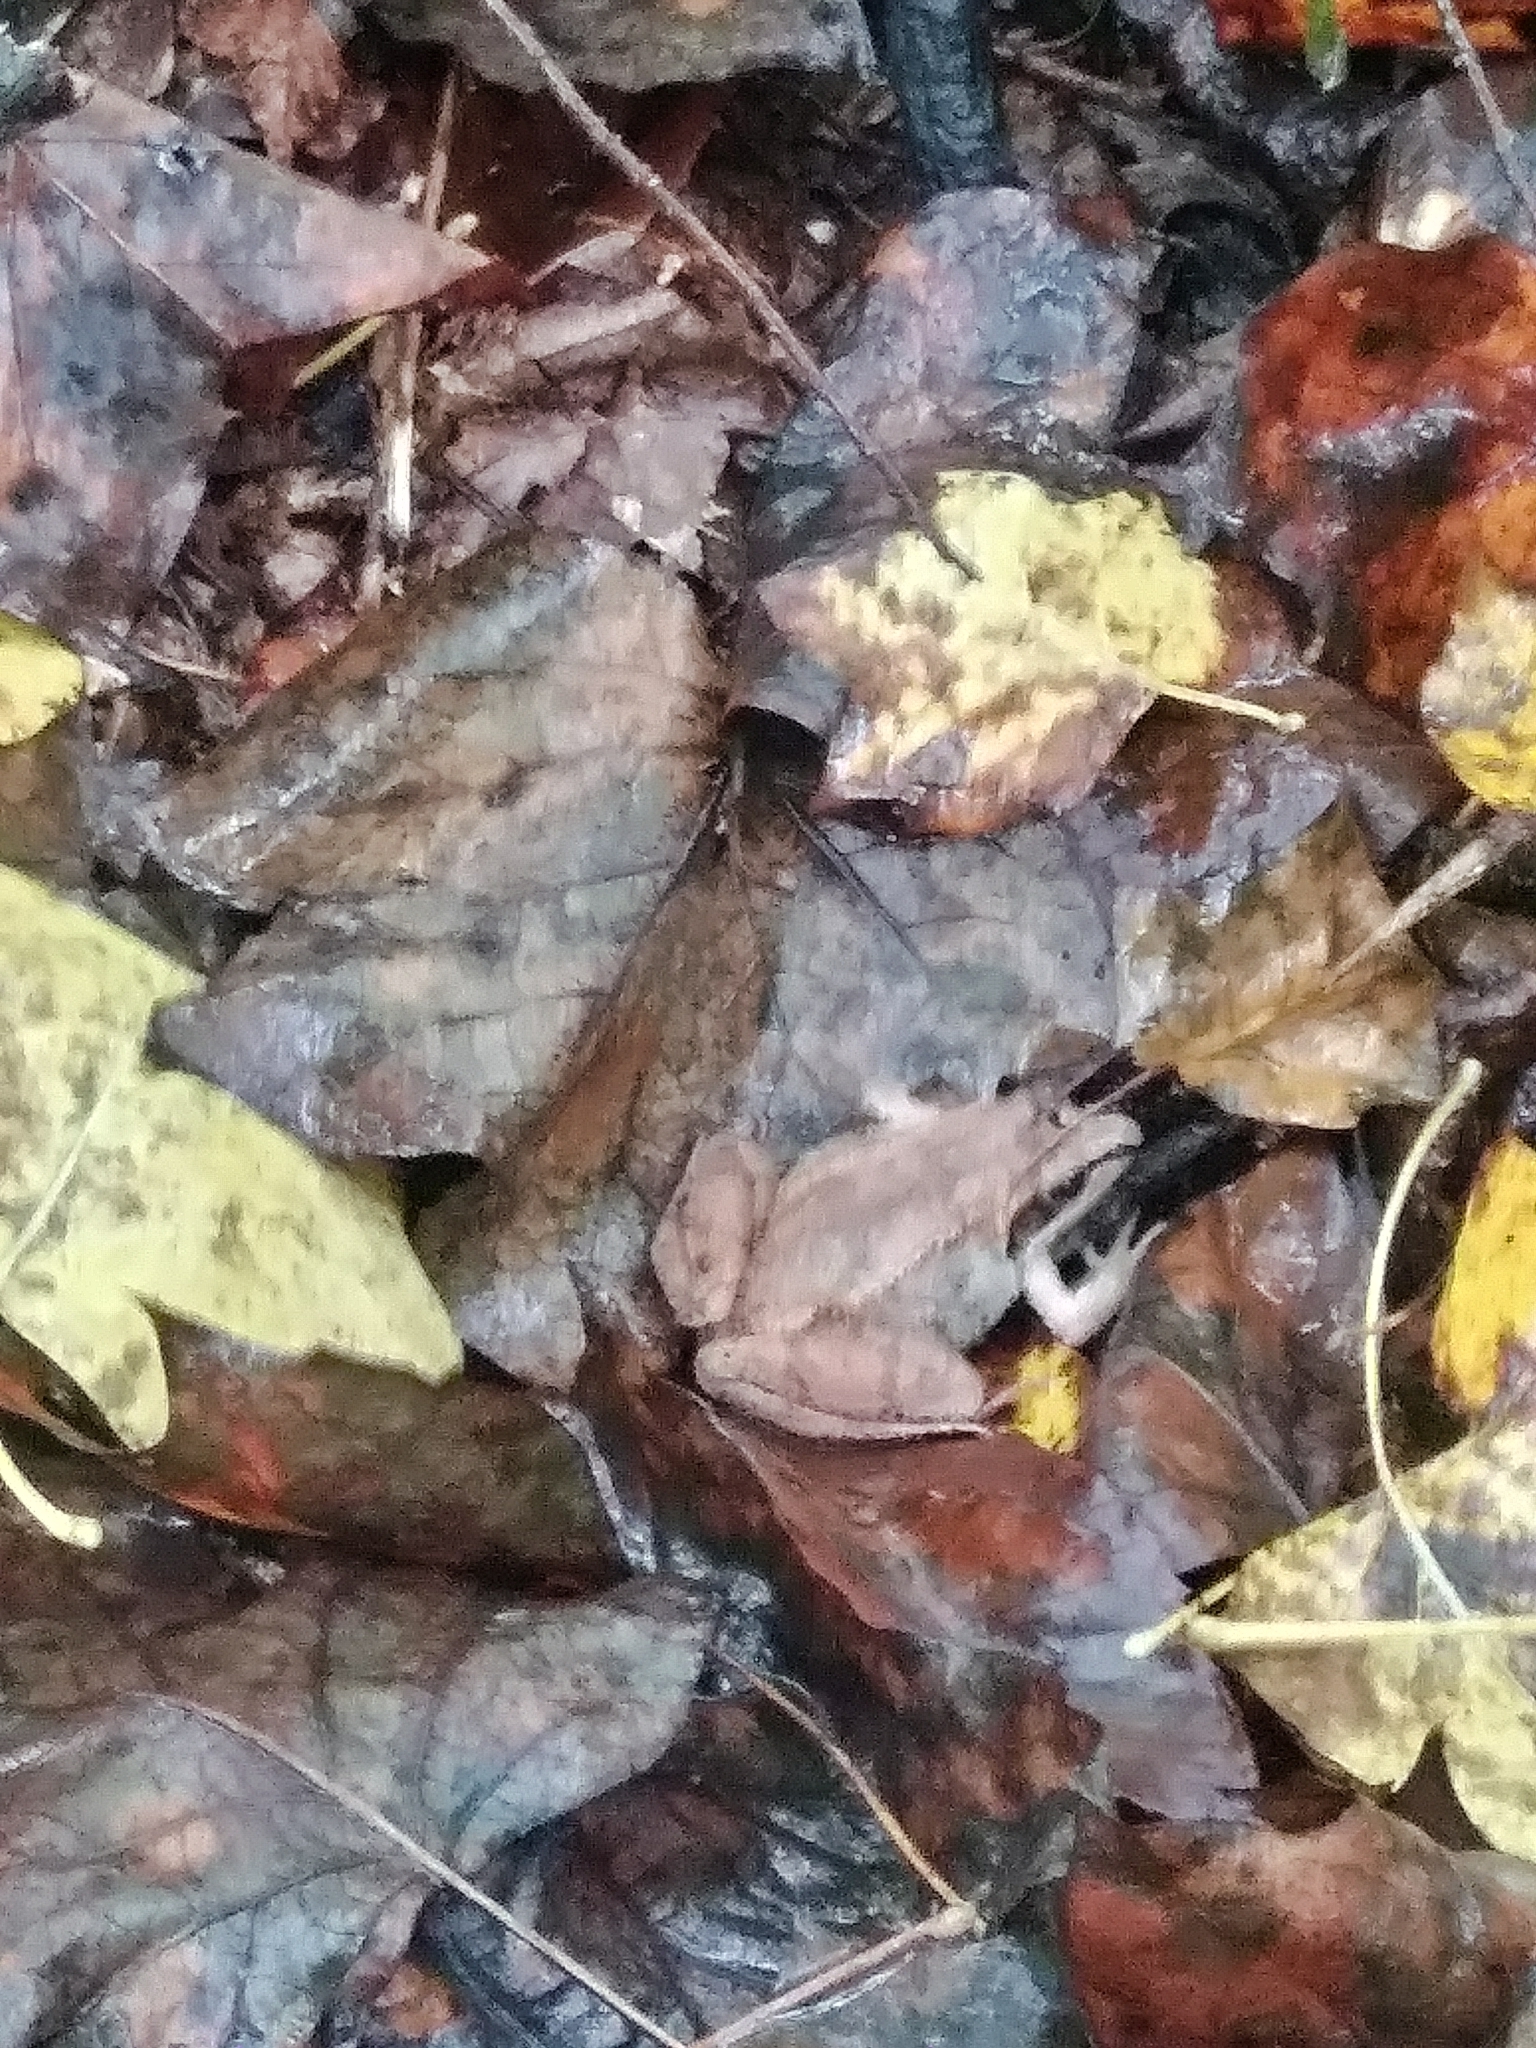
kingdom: Animalia
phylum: Chordata
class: Amphibia
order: Anura
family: Ranidae
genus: Lithobates
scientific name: Lithobates sylvaticus
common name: Wood frog
